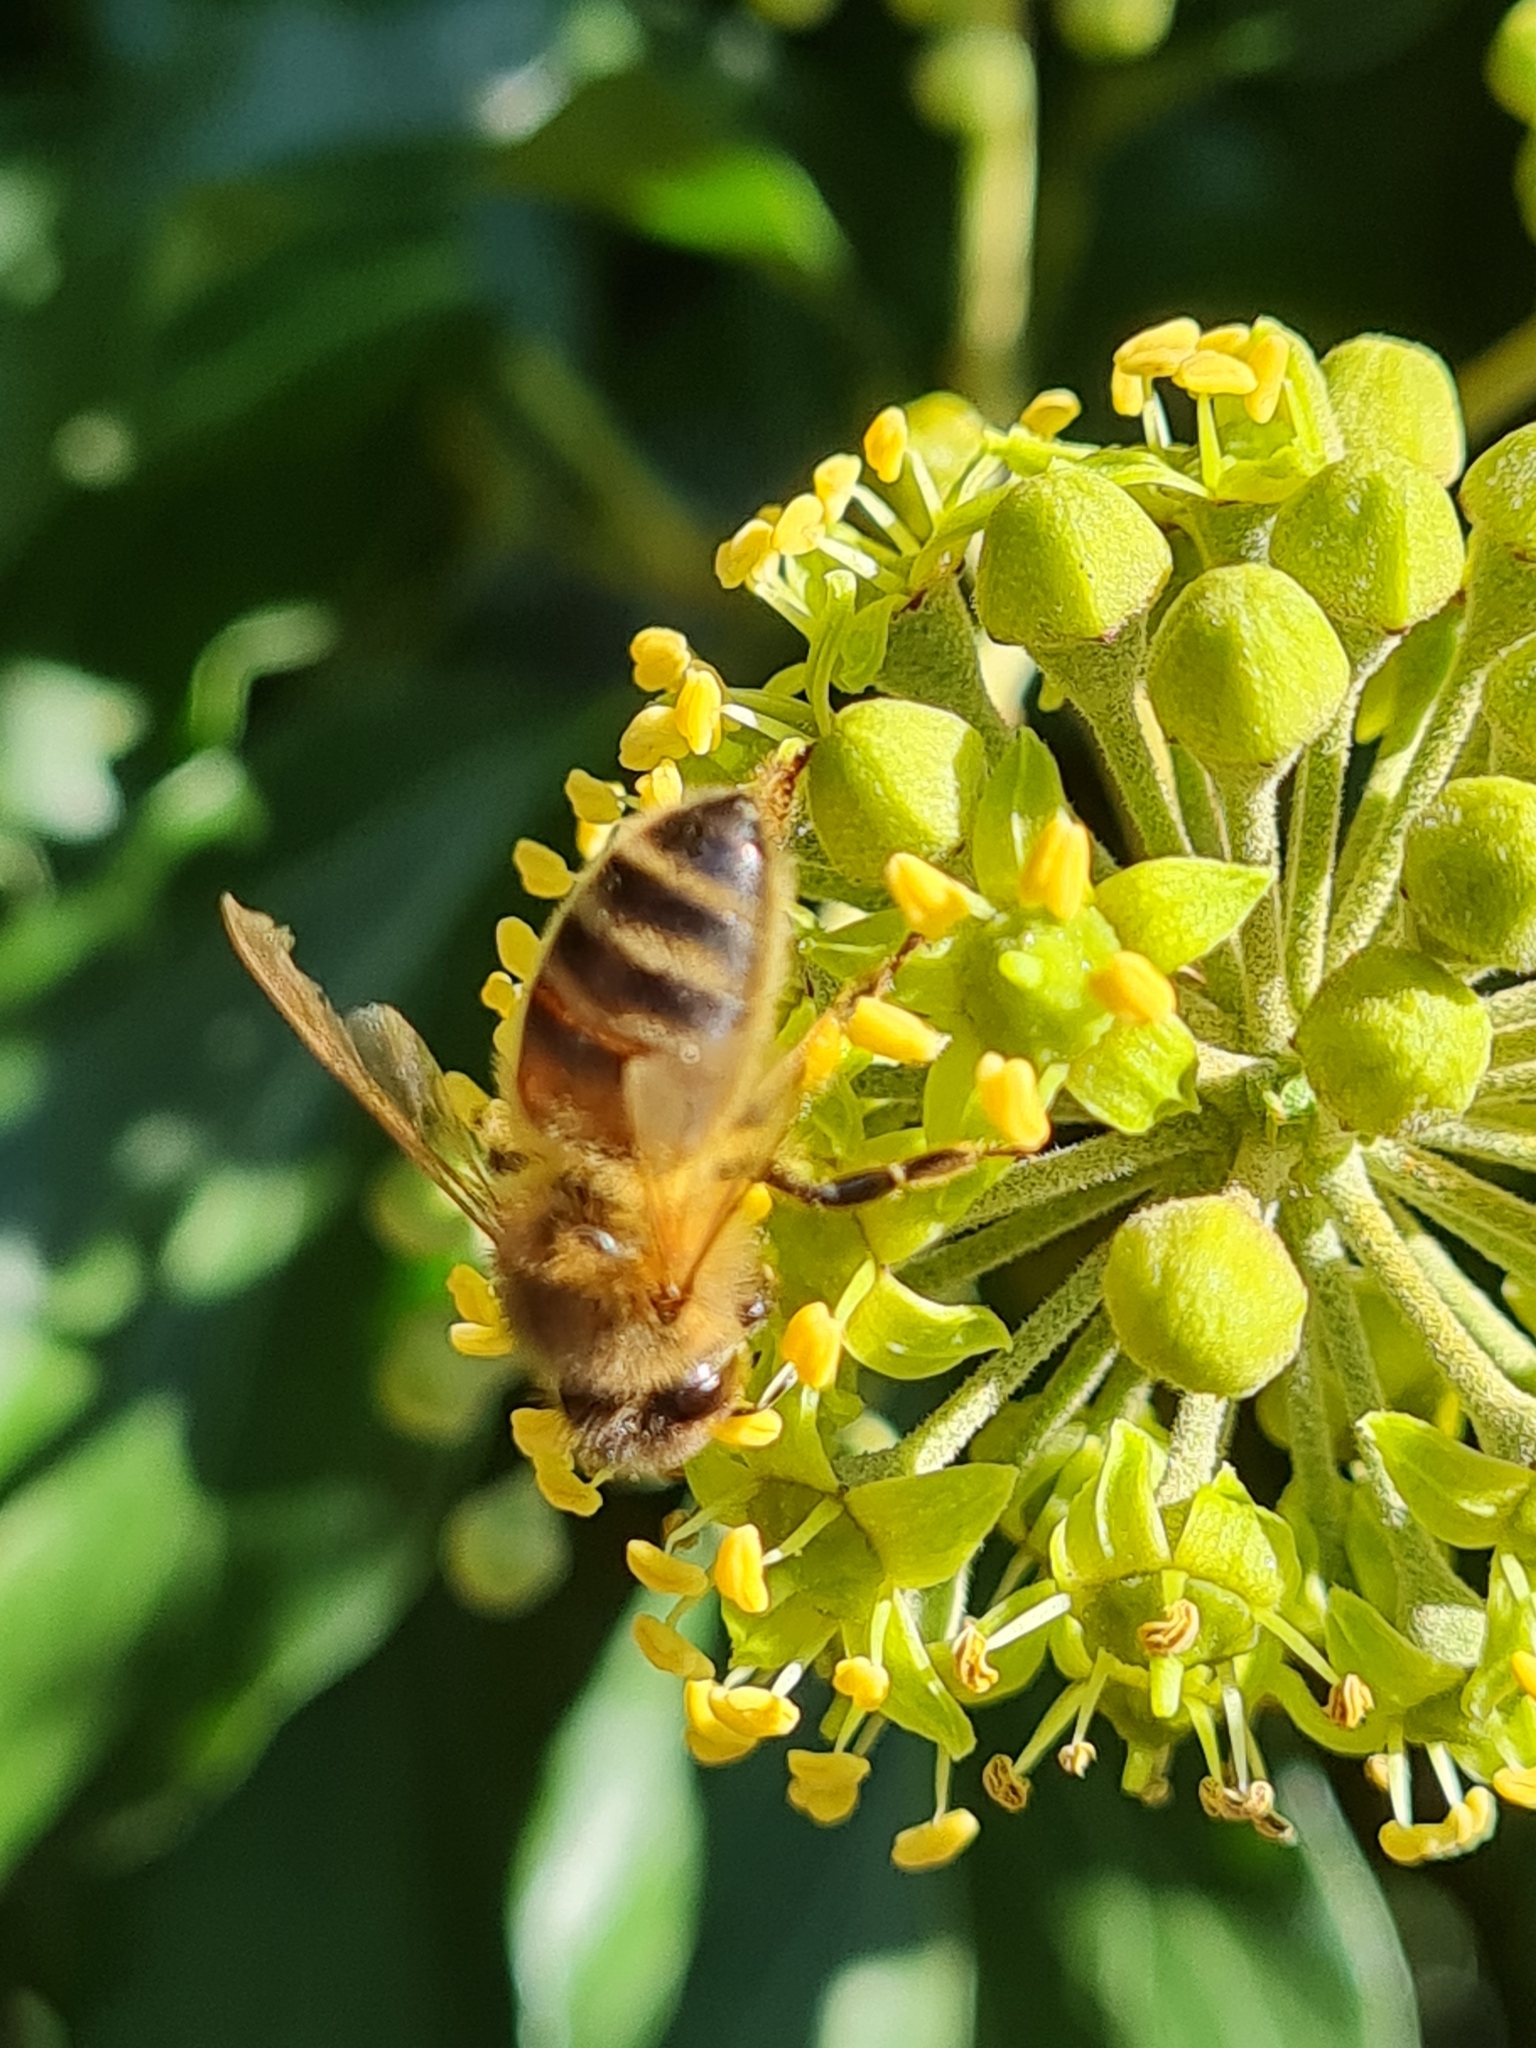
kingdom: Animalia
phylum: Arthropoda
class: Insecta
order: Hymenoptera
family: Apidae
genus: Apis
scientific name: Apis mellifera
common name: Honey bee
